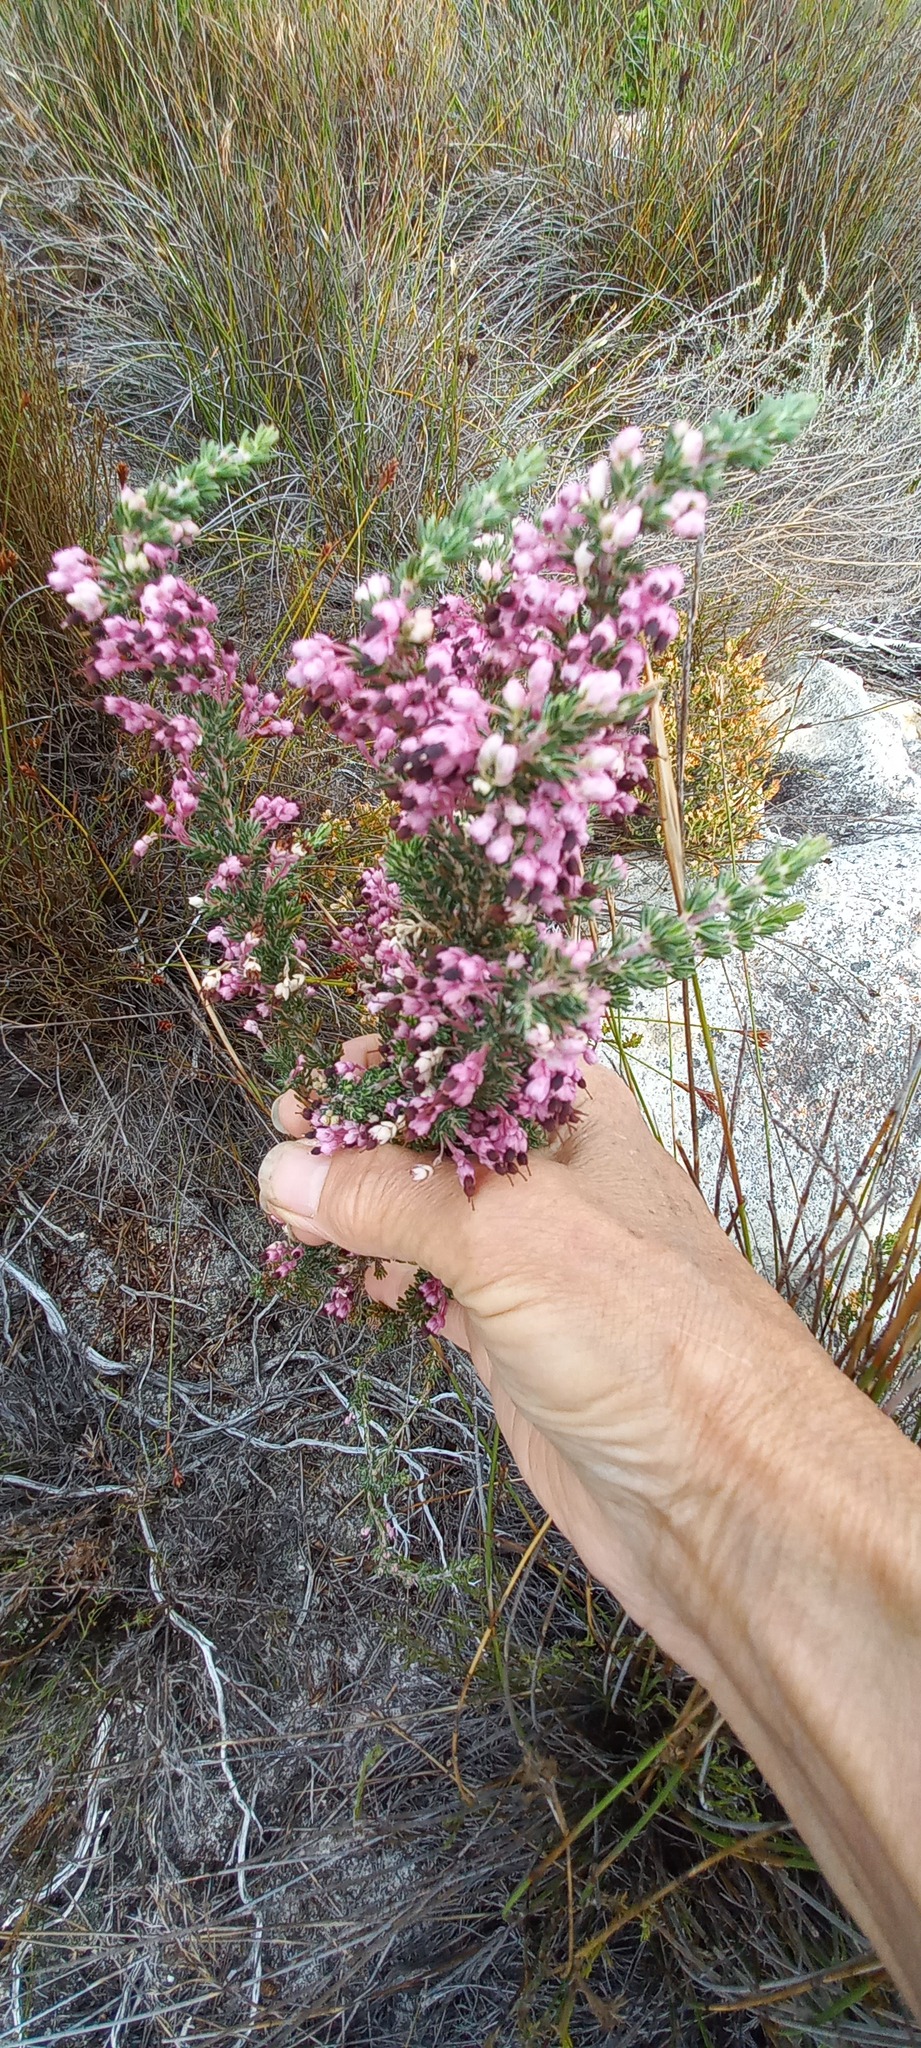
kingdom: Plantae
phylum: Tracheophyta
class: Magnoliopsida
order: Ericales
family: Ericaceae
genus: Erica
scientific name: Erica placentiflora
